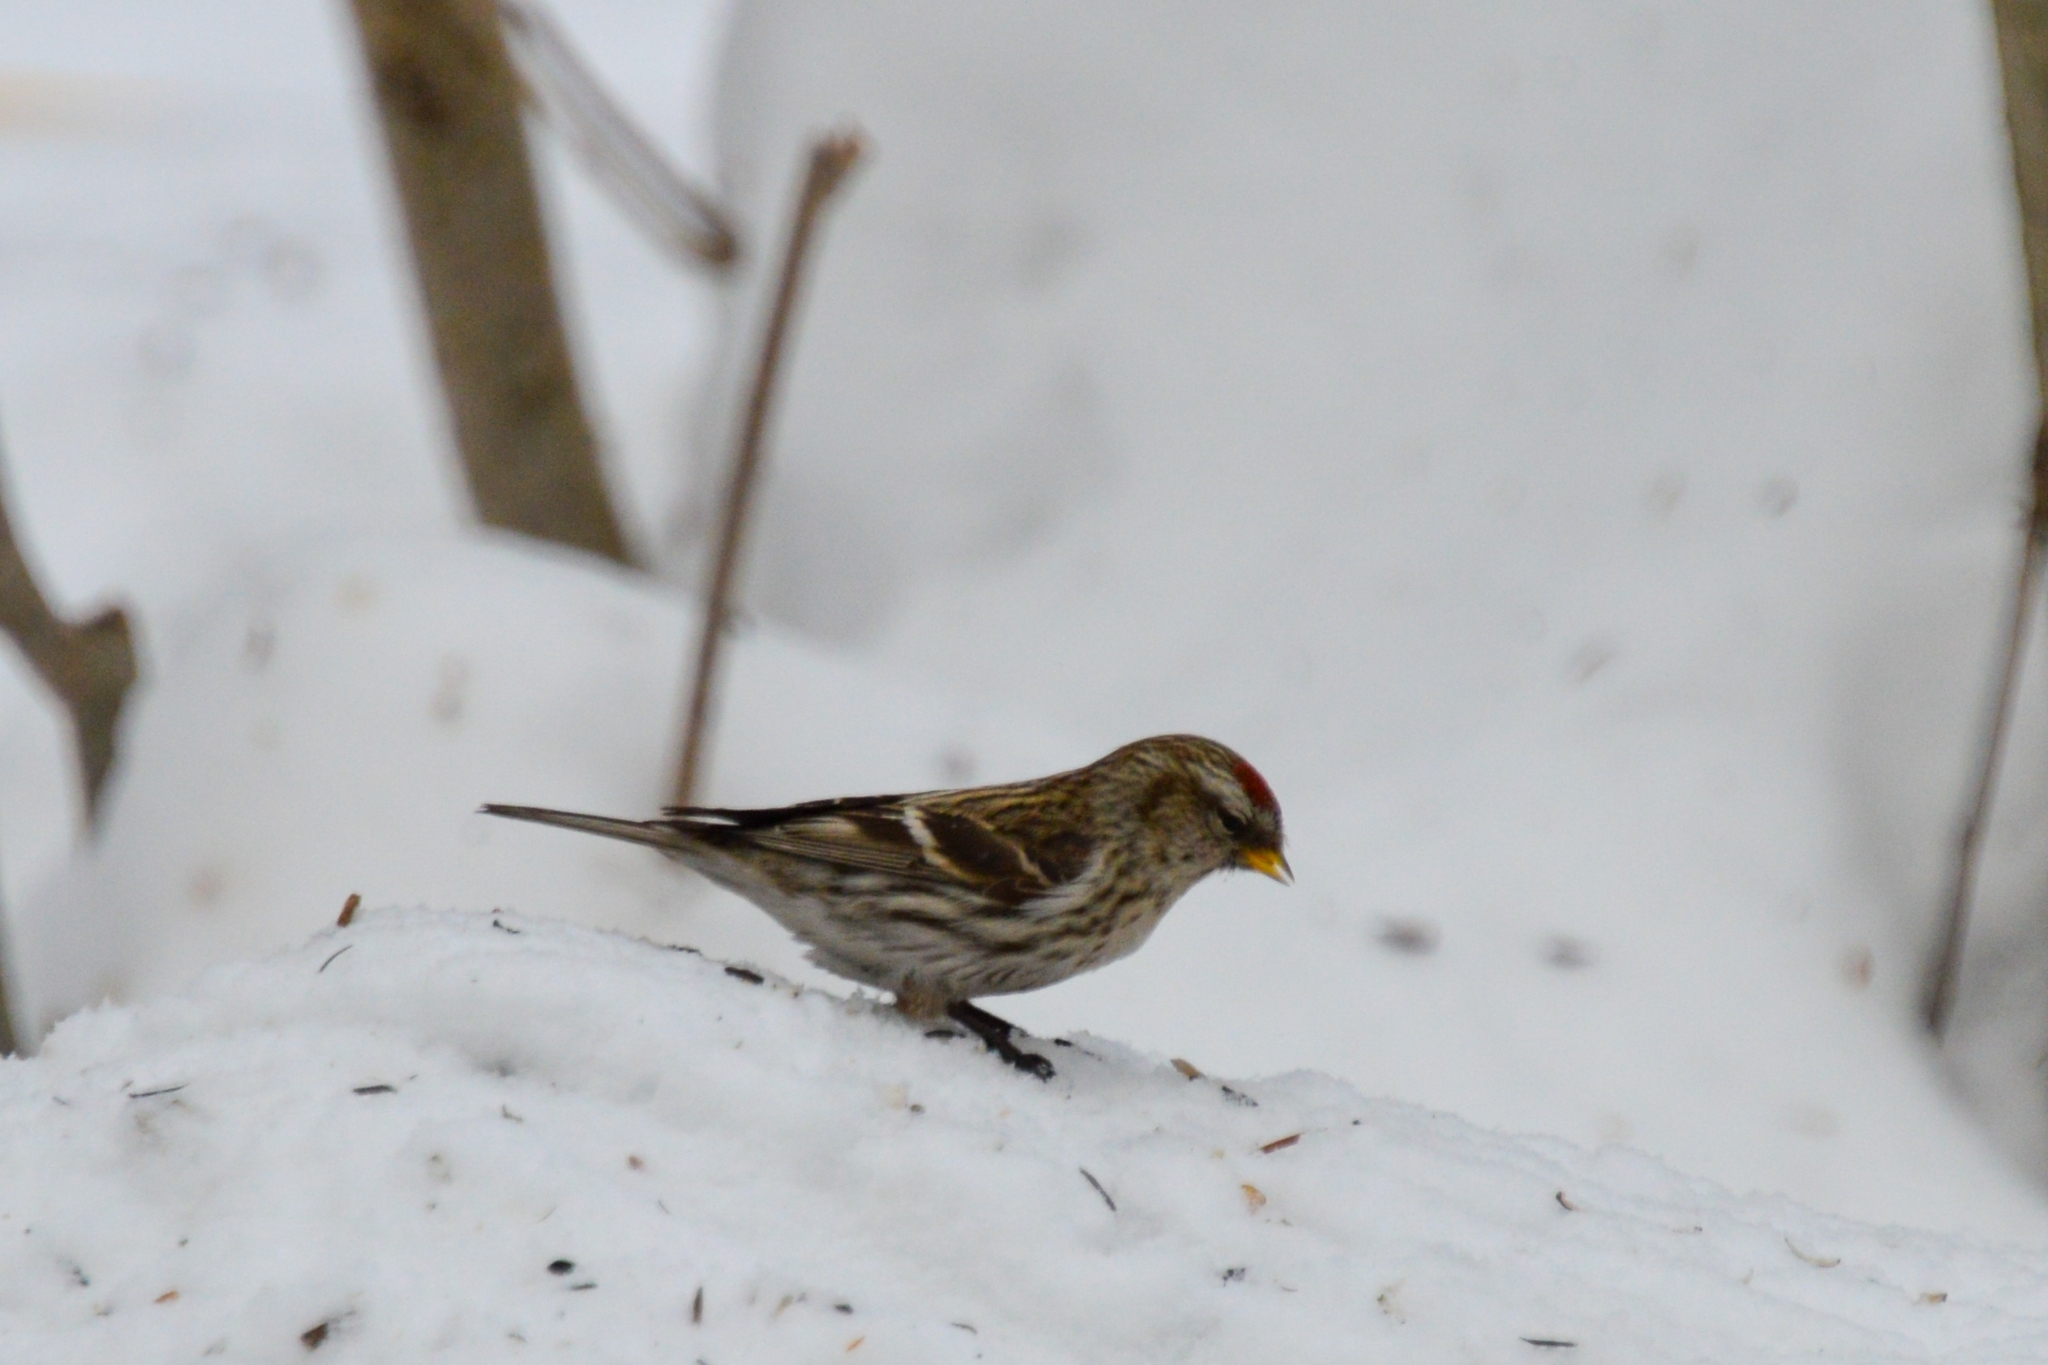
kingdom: Animalia
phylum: Chordata
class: Aves
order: Passeriformes
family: Fringillidae
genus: Acanthis
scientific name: Acanthis flammea
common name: Common redpoll
